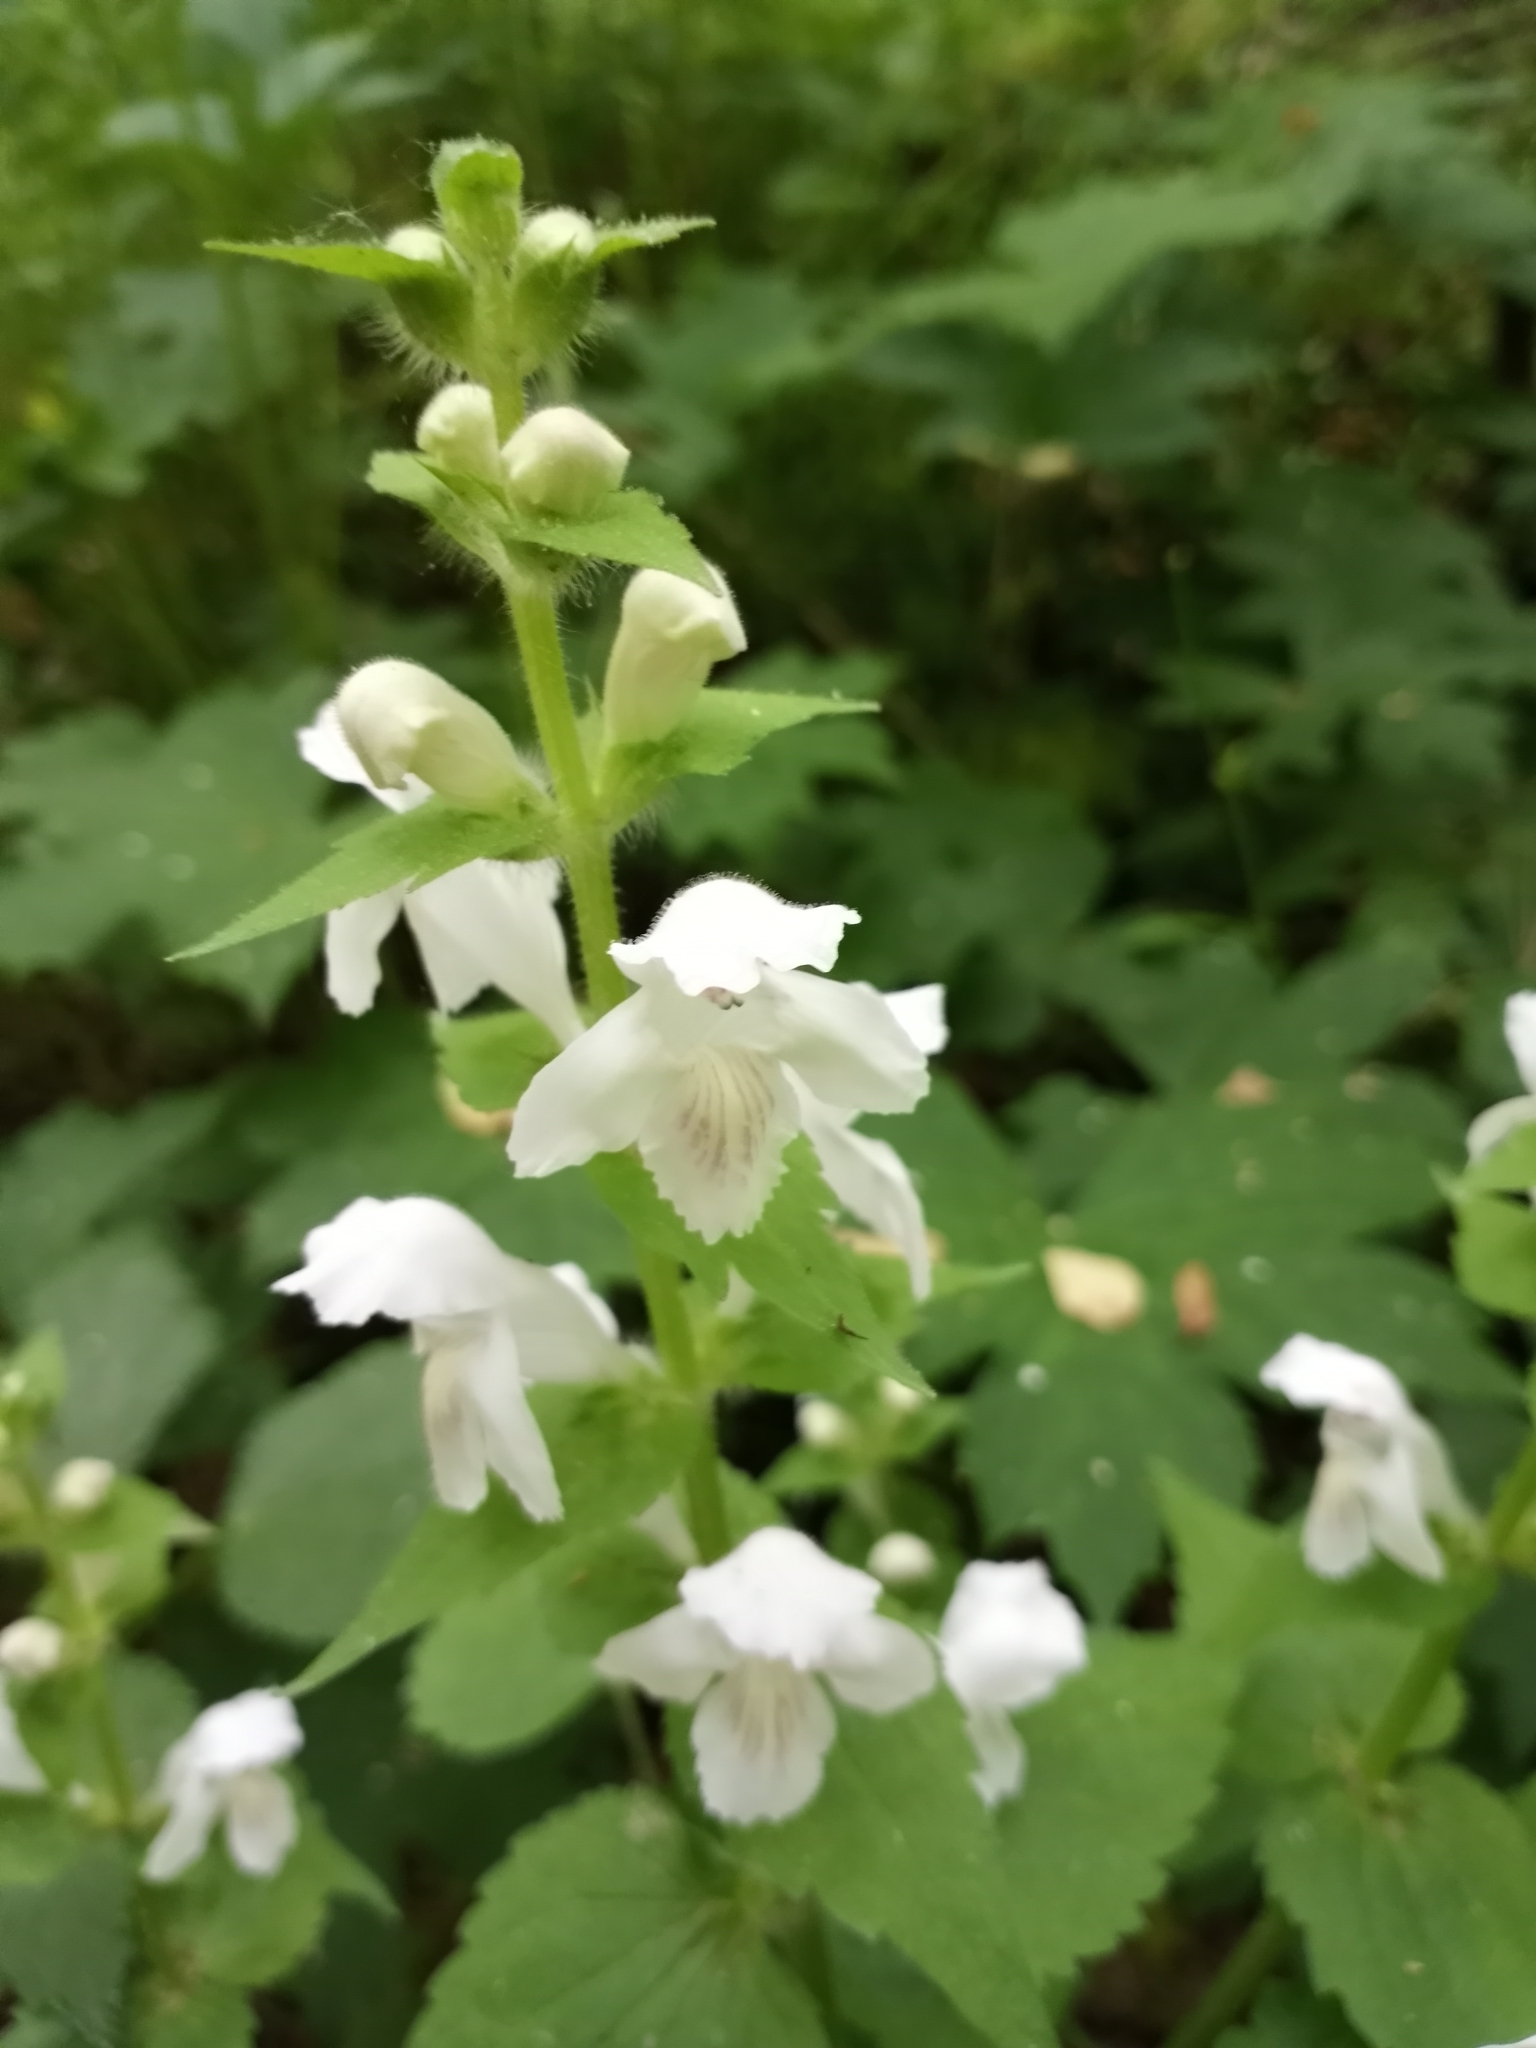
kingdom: Plantae
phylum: Tracheophyta
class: Magnoliopsida
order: Lamiales
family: Lamiaceae
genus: Synandra
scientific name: Synandra hispidula
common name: Synandra
